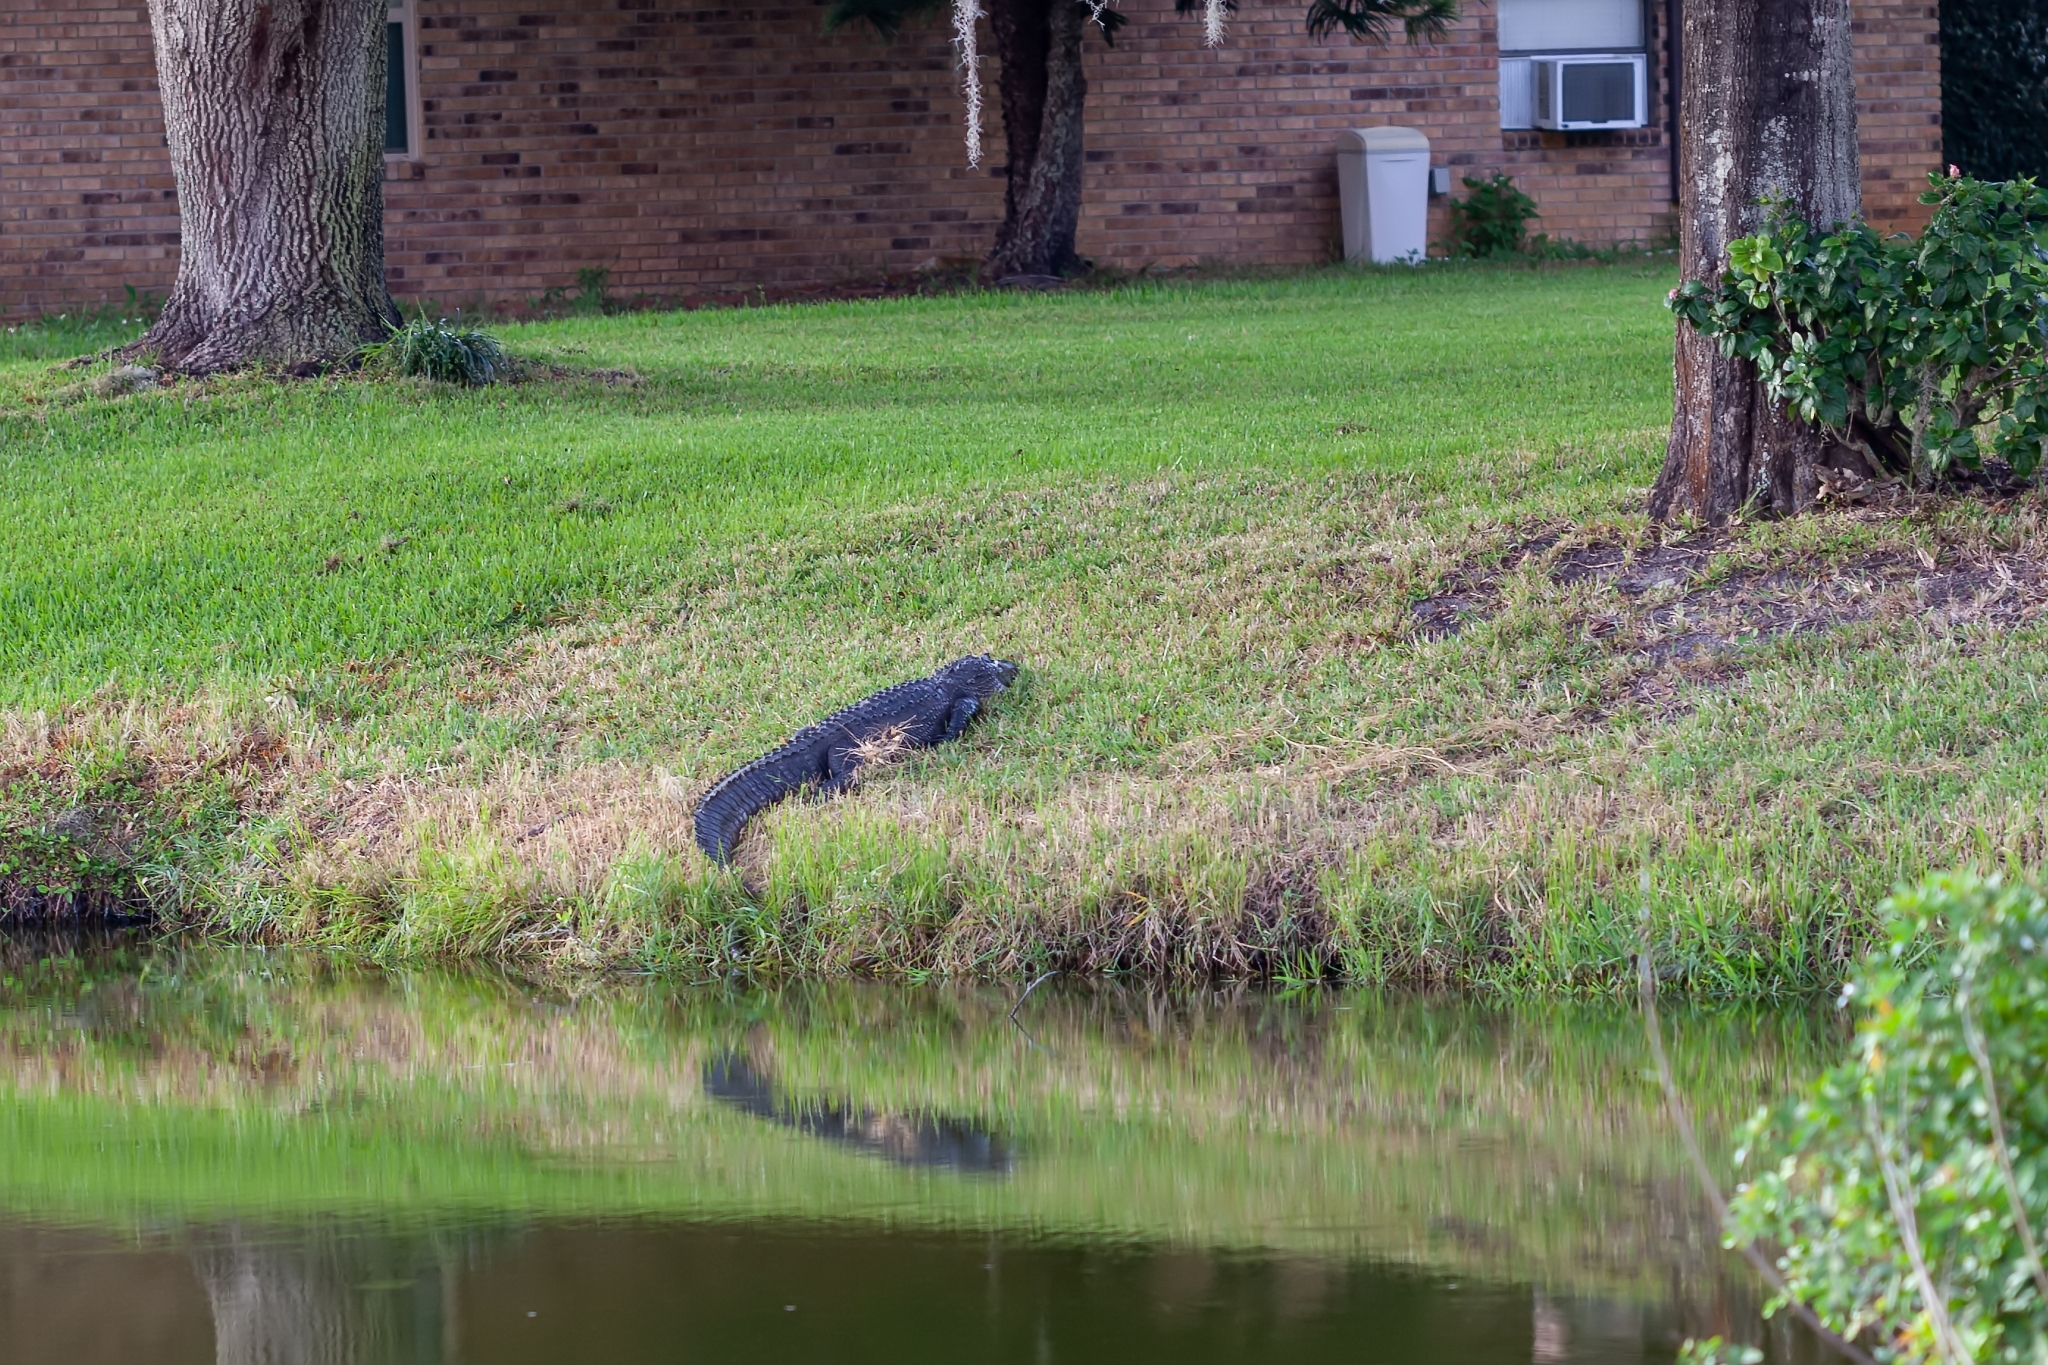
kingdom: Animalia
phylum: Chordata
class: Crocodylia
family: Alligatoridae
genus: Alligator
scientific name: Alligator mississippiensis
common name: American alligator
